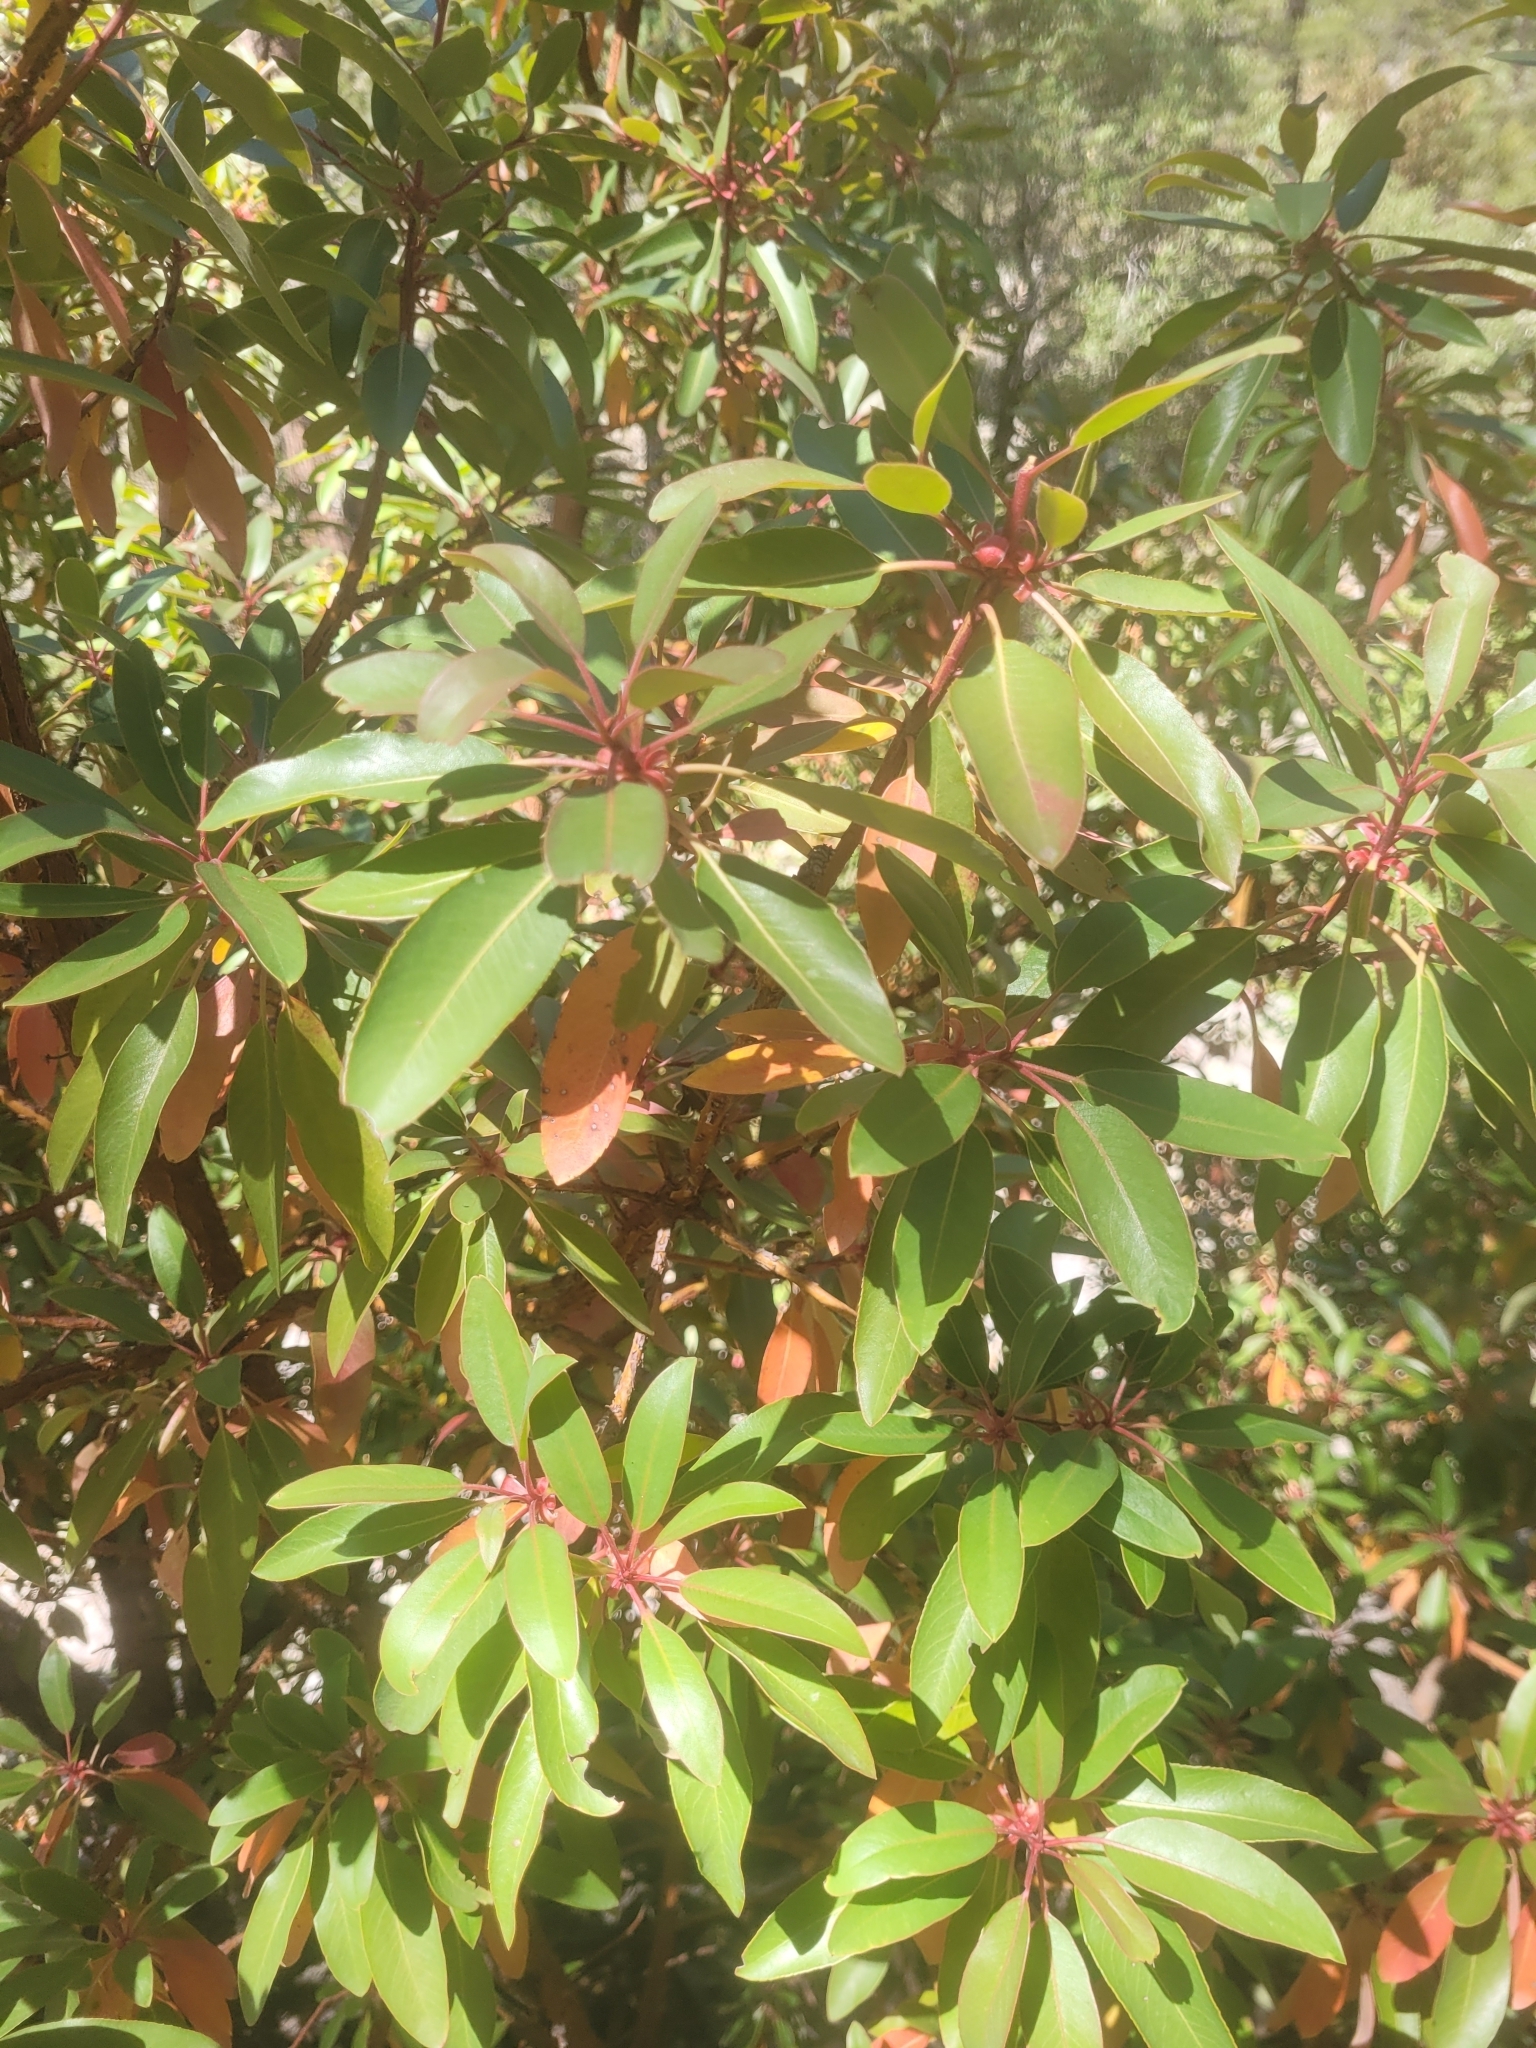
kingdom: Plantae
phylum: Tracheophyta
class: Magnoliopsida
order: Ericales
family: Ericaceae
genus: Arbutus
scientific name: Arbutus arizonica
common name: Arizona madrone
